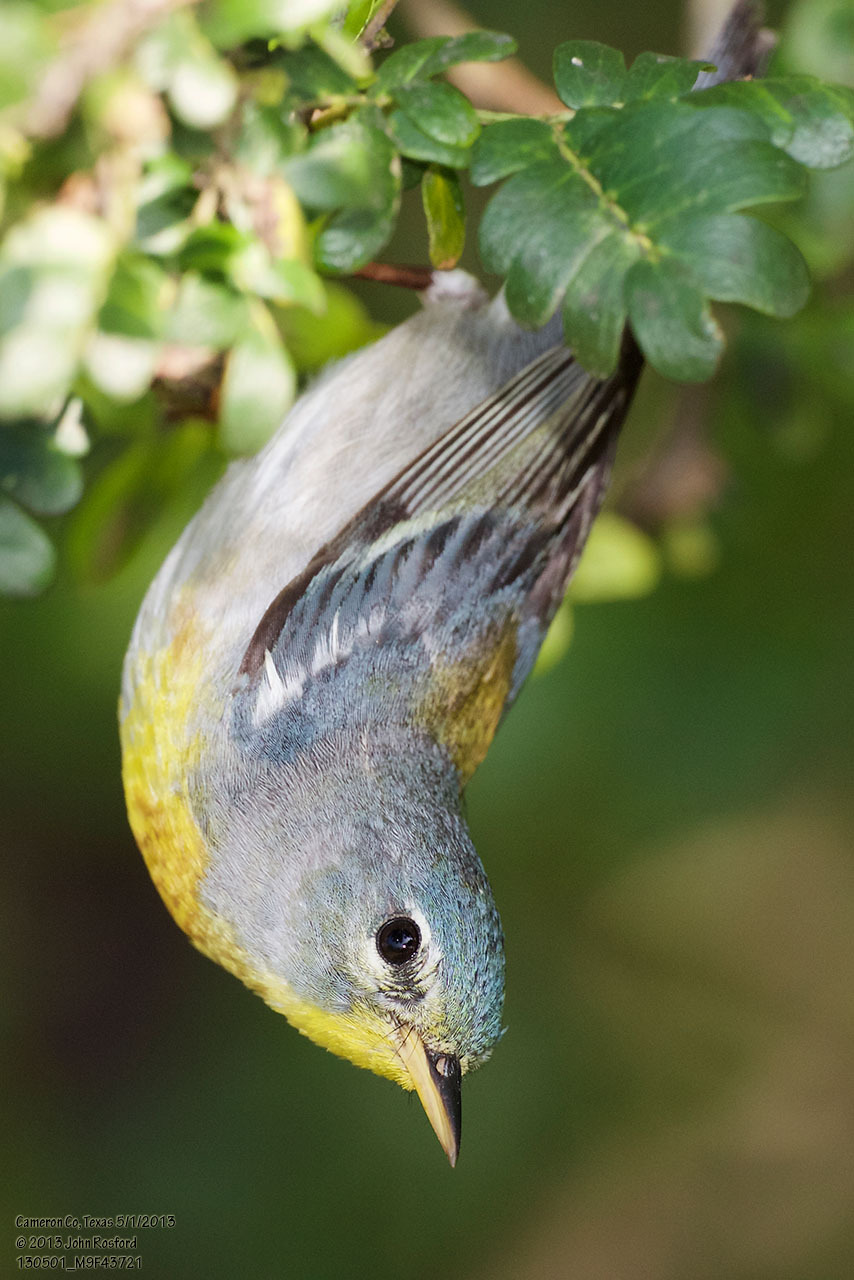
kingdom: Animalia
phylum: Chordata
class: Aves
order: Passeriformes
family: Parulidae
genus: Setophaga
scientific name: Setophaga americana
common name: Northern parula
